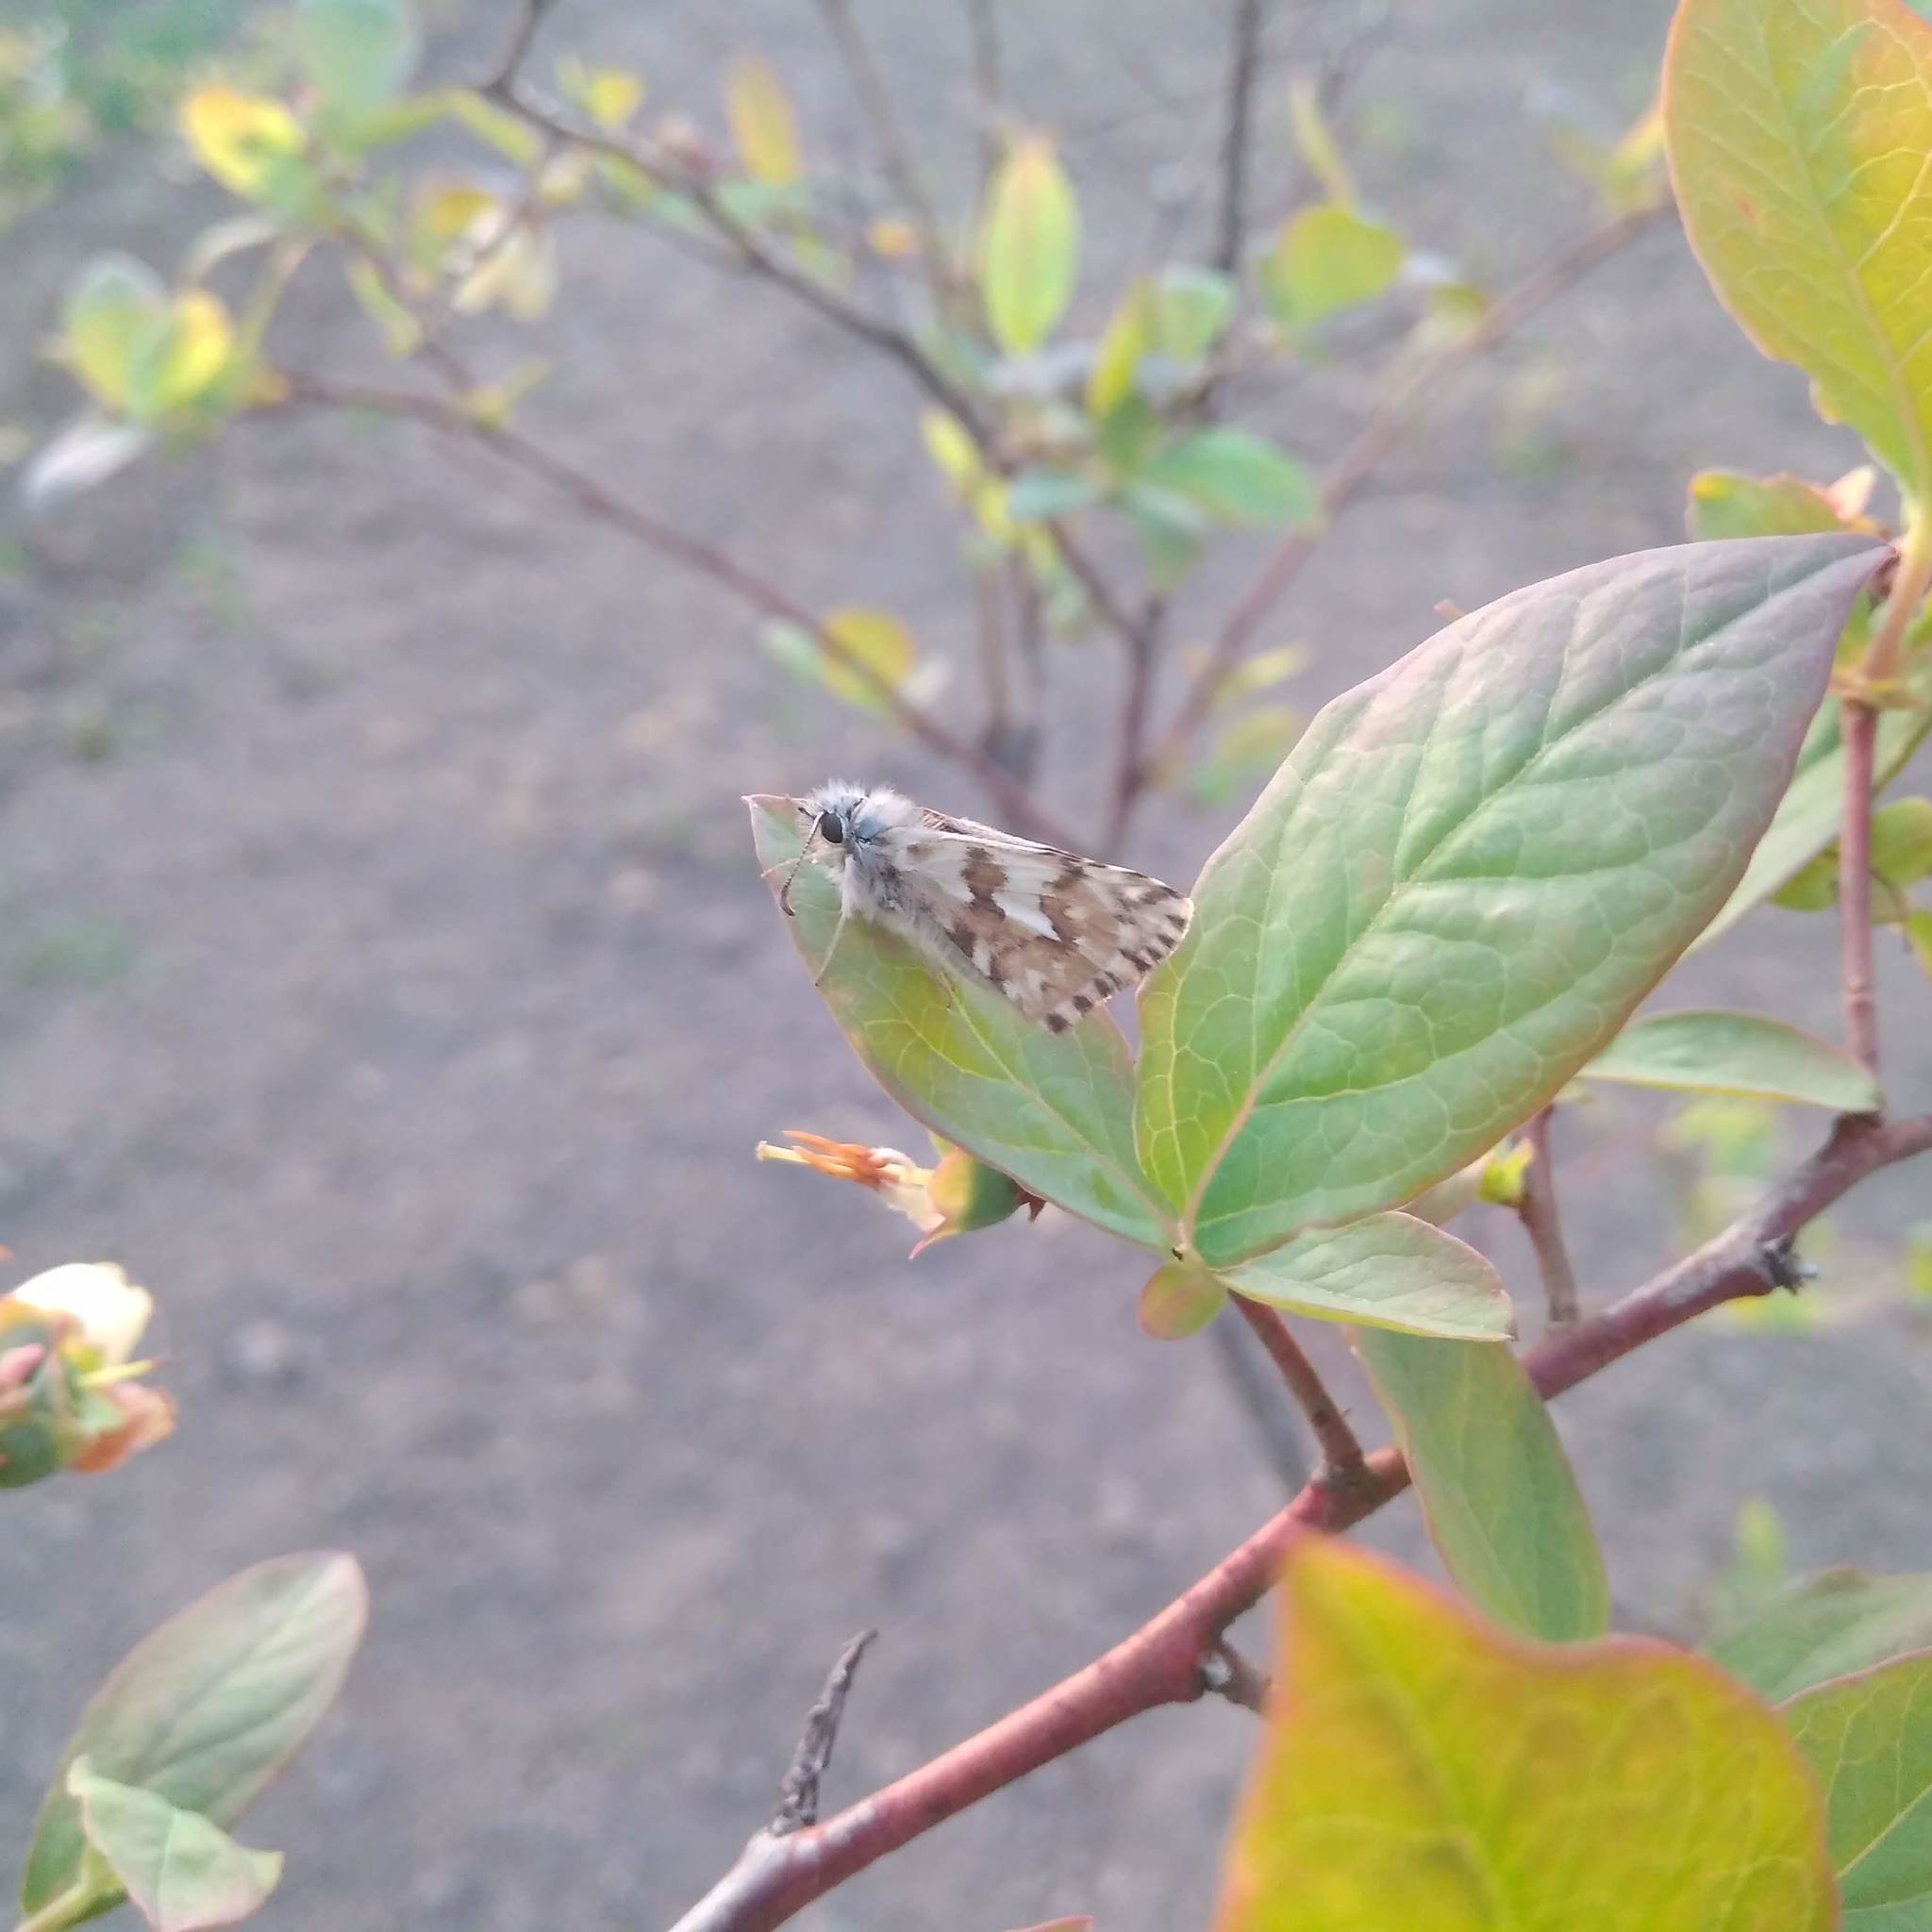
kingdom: Animalia
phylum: Arthropoda
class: Insecta
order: Lepidoptera
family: Hesperiidae
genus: Heliopetes
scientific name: Heliopetes americanus
